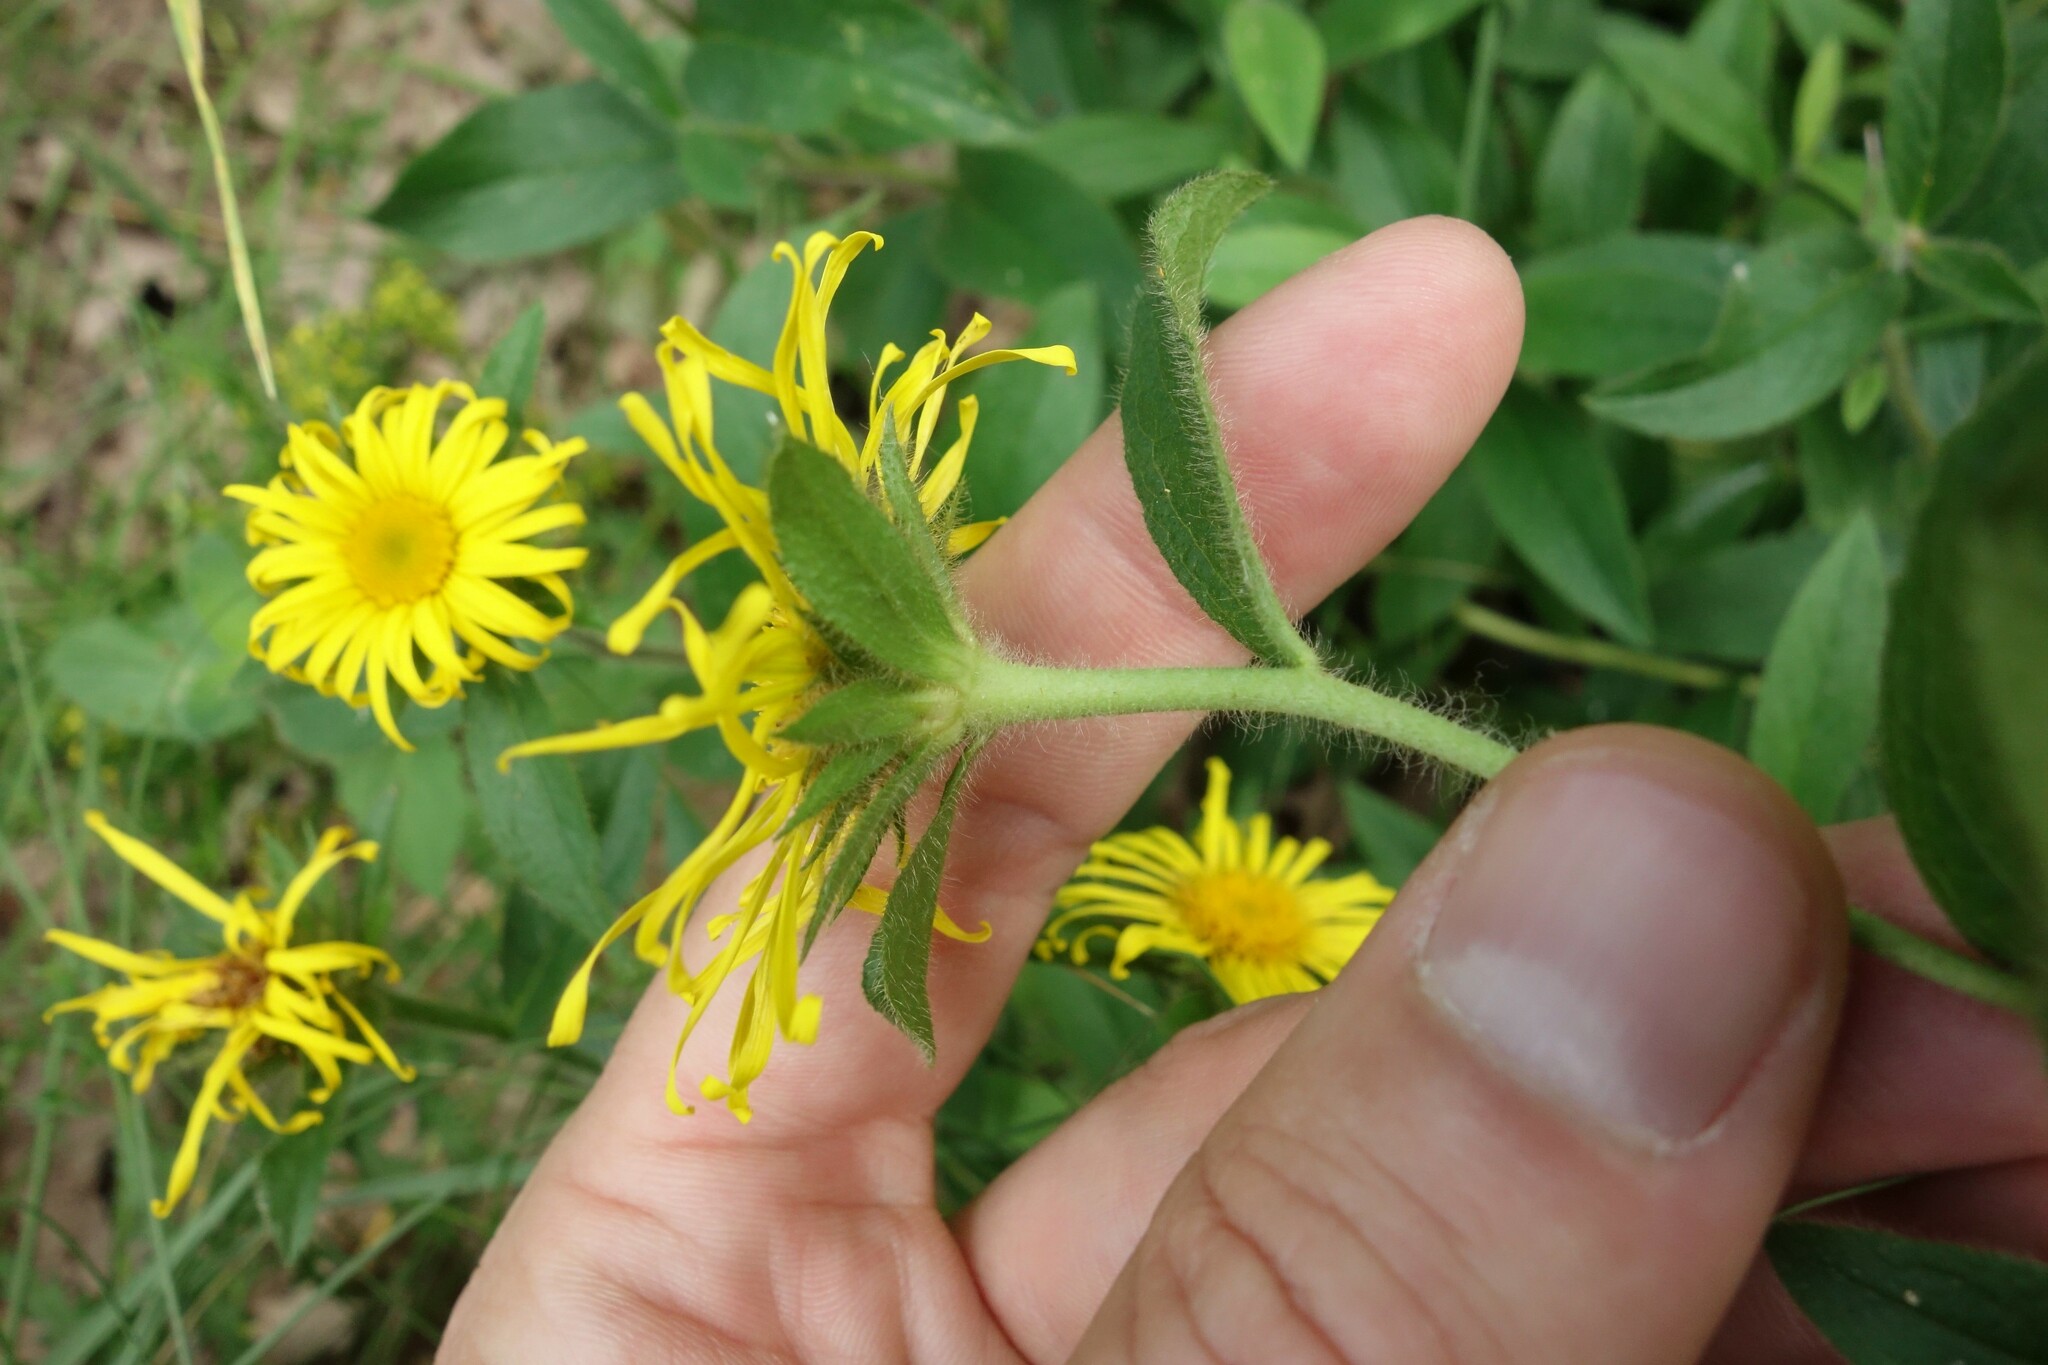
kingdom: Plantae
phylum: Tracheophyta
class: Magnoliopsida
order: Asterales
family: Asteraceae
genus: Pentanema
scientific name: Pentanema hirtum
